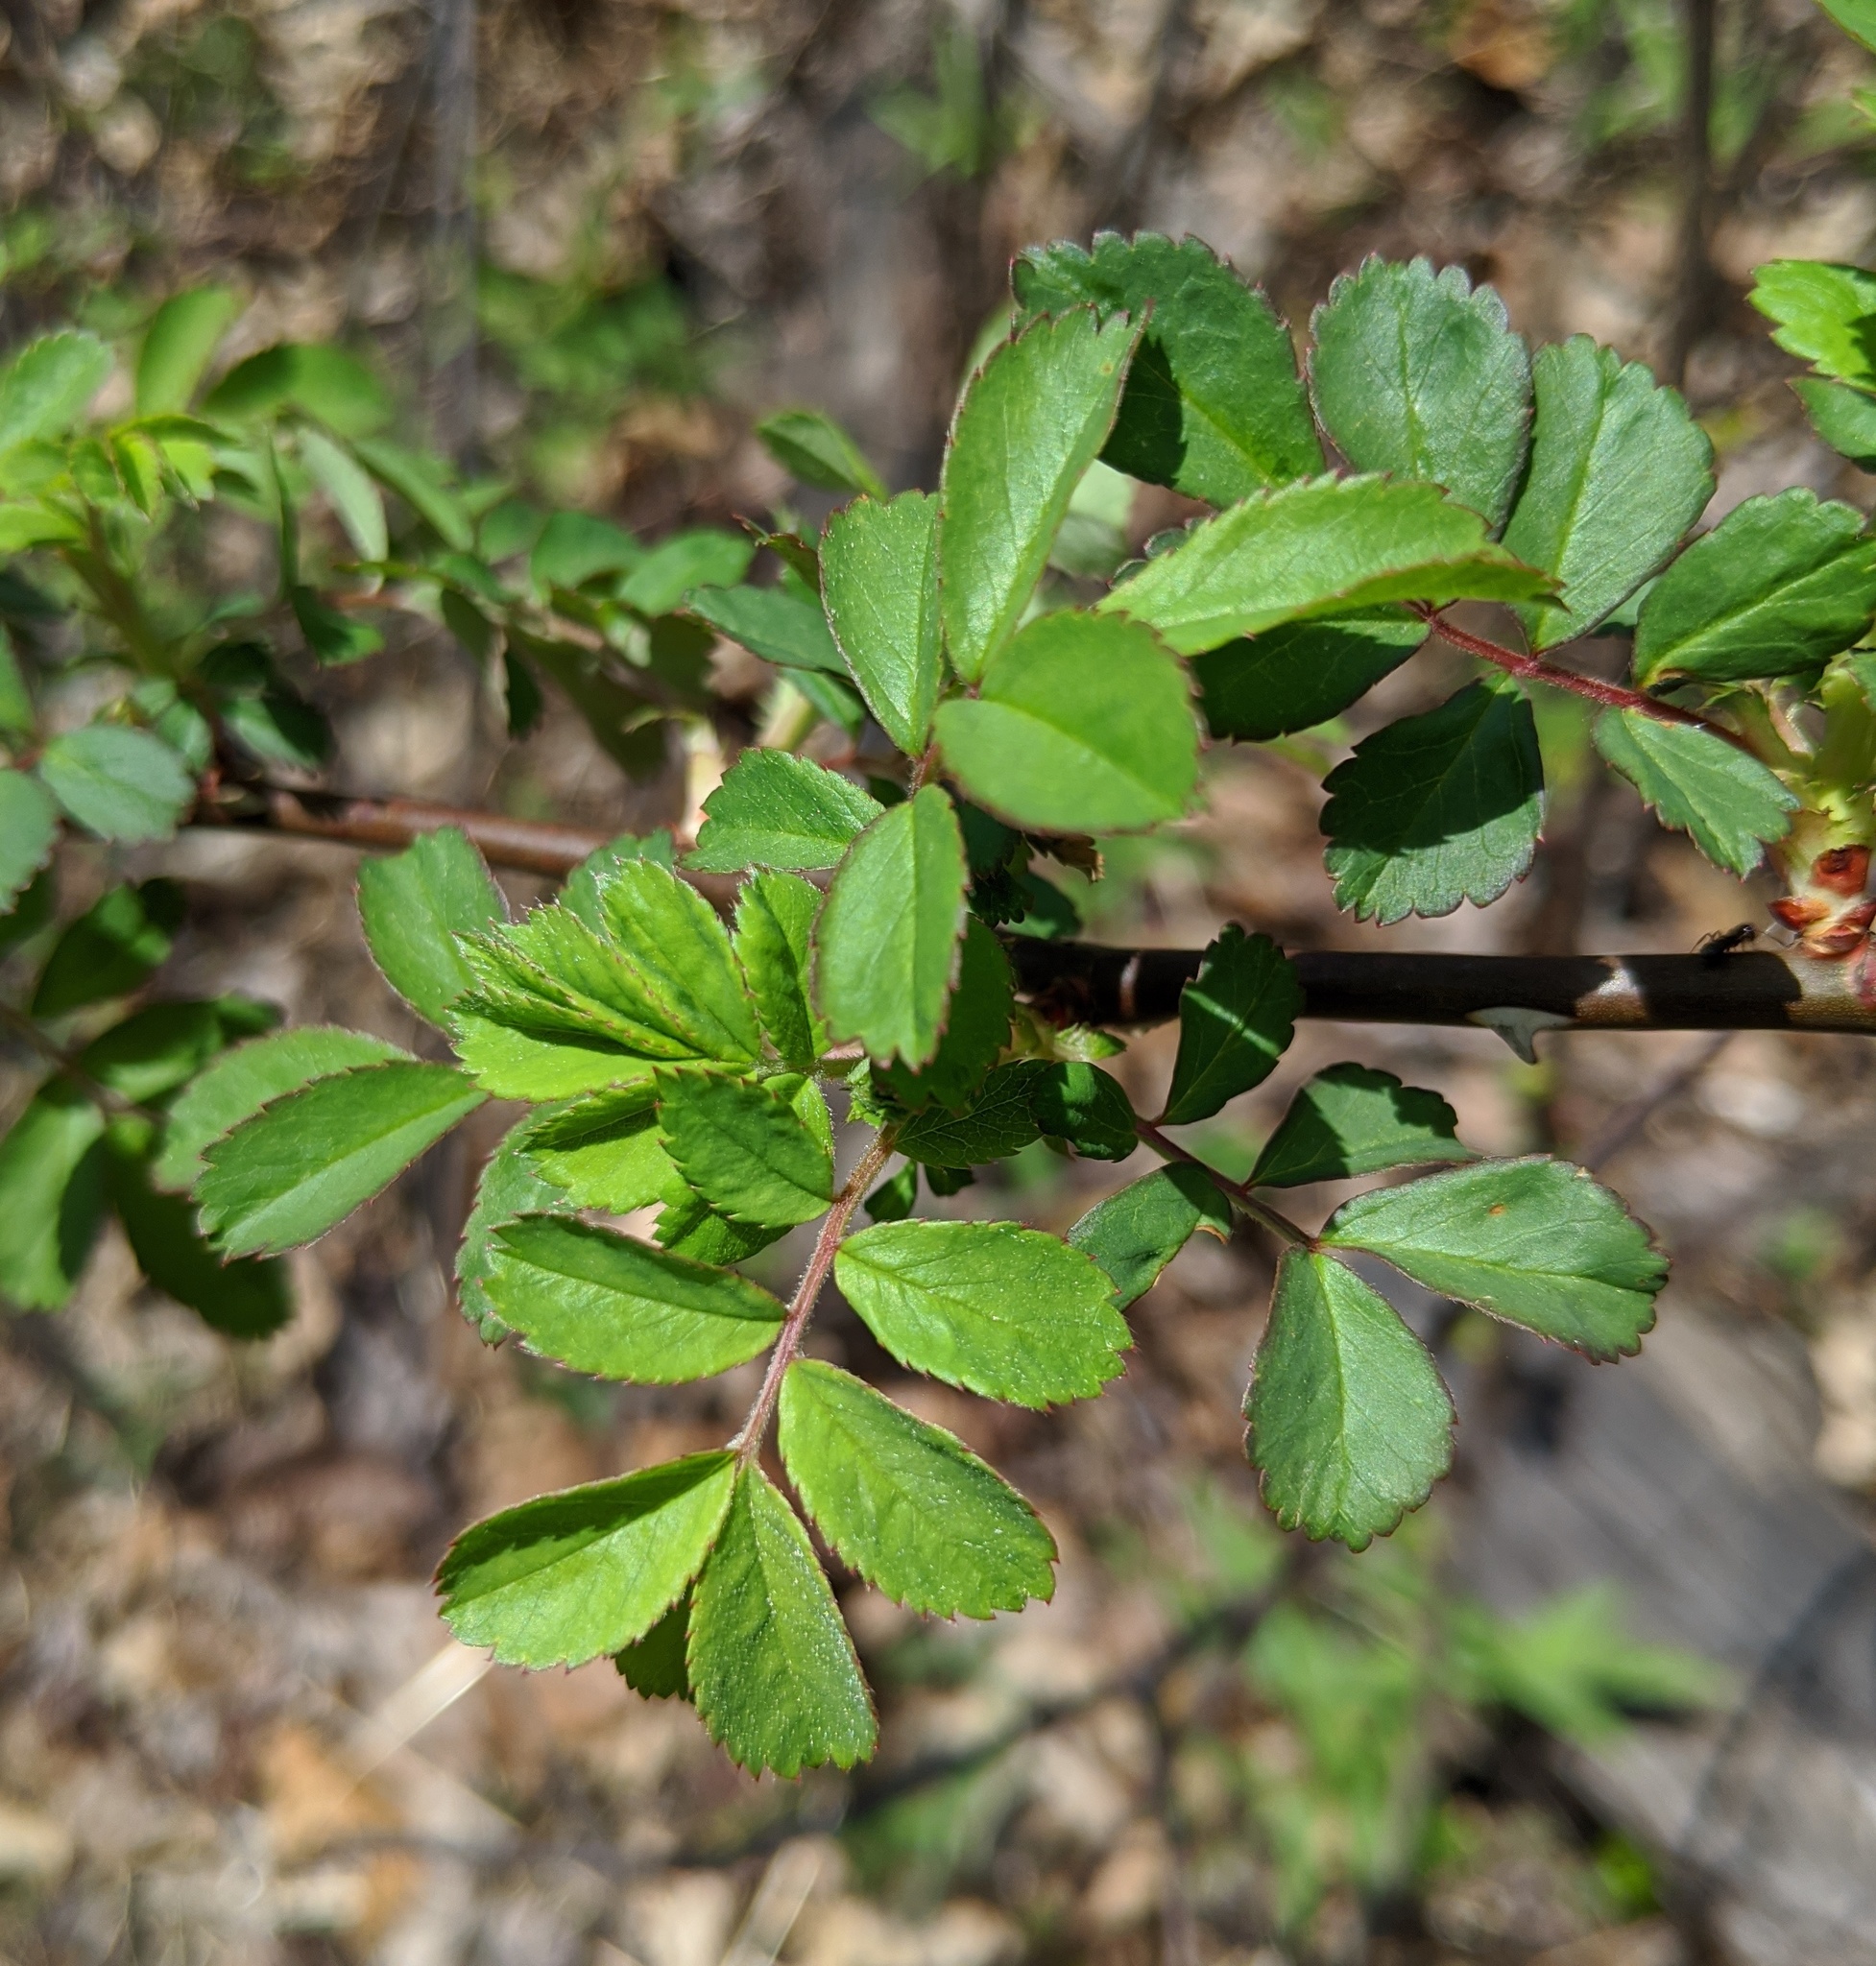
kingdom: Plantae
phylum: Tracheophyta
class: Magnoliopsida
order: Rosales
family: Rosaceae
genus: Rosa
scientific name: Rosa multiflora
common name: Multiflora rose
